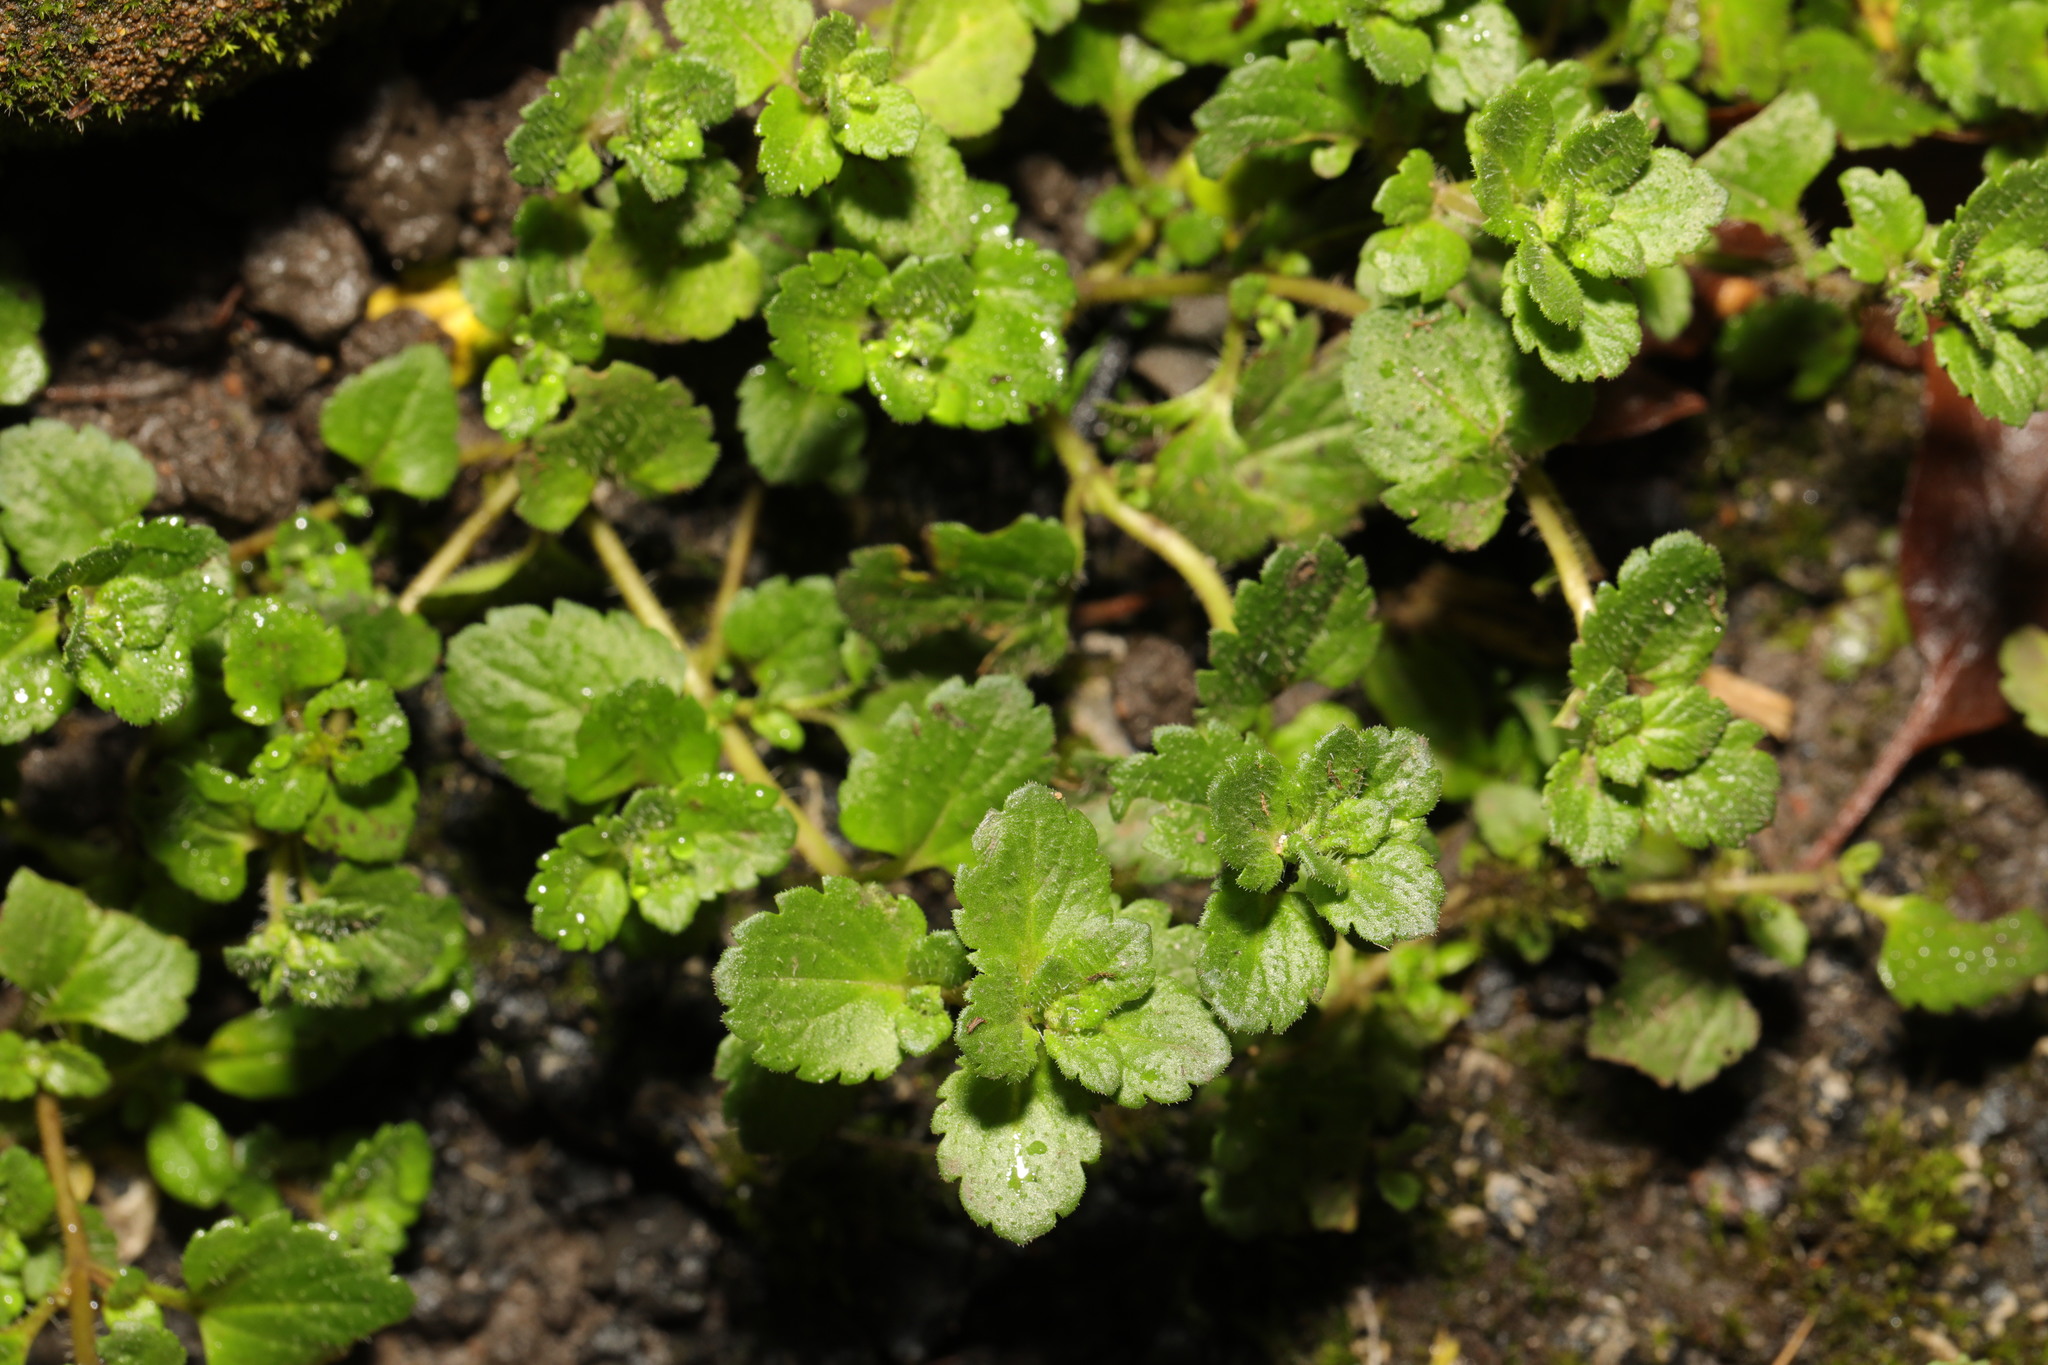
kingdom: Plantae
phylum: Tracheophyta
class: Magnoliopsida
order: Lamiales
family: Plantaginaceae
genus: Veronica
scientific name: Veronica persica
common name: Common field-speedwell
